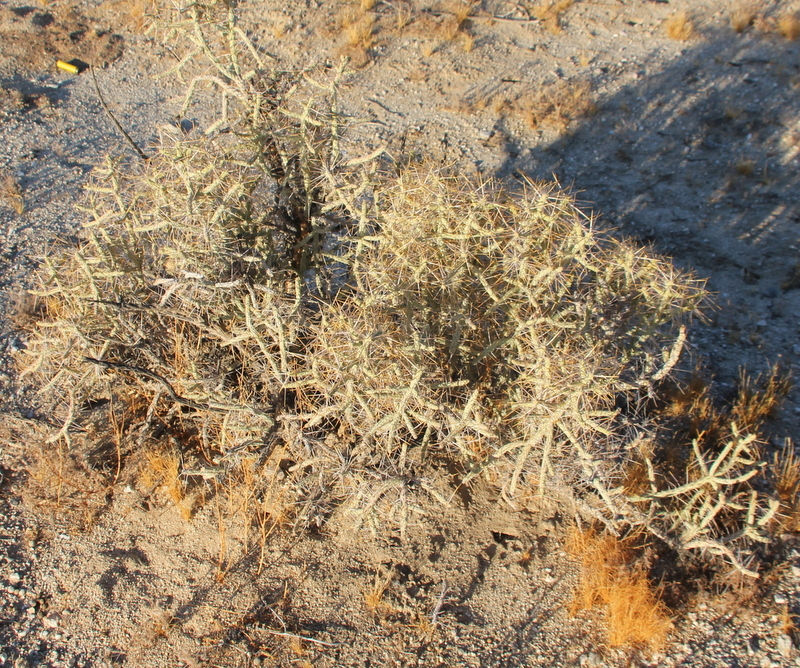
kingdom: Plantae
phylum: Tracheophyta
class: Magnoliopsida
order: Caryophyllales
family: Cactaceae
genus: Cylindropuntia
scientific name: Cylindropuntia ramosissima
